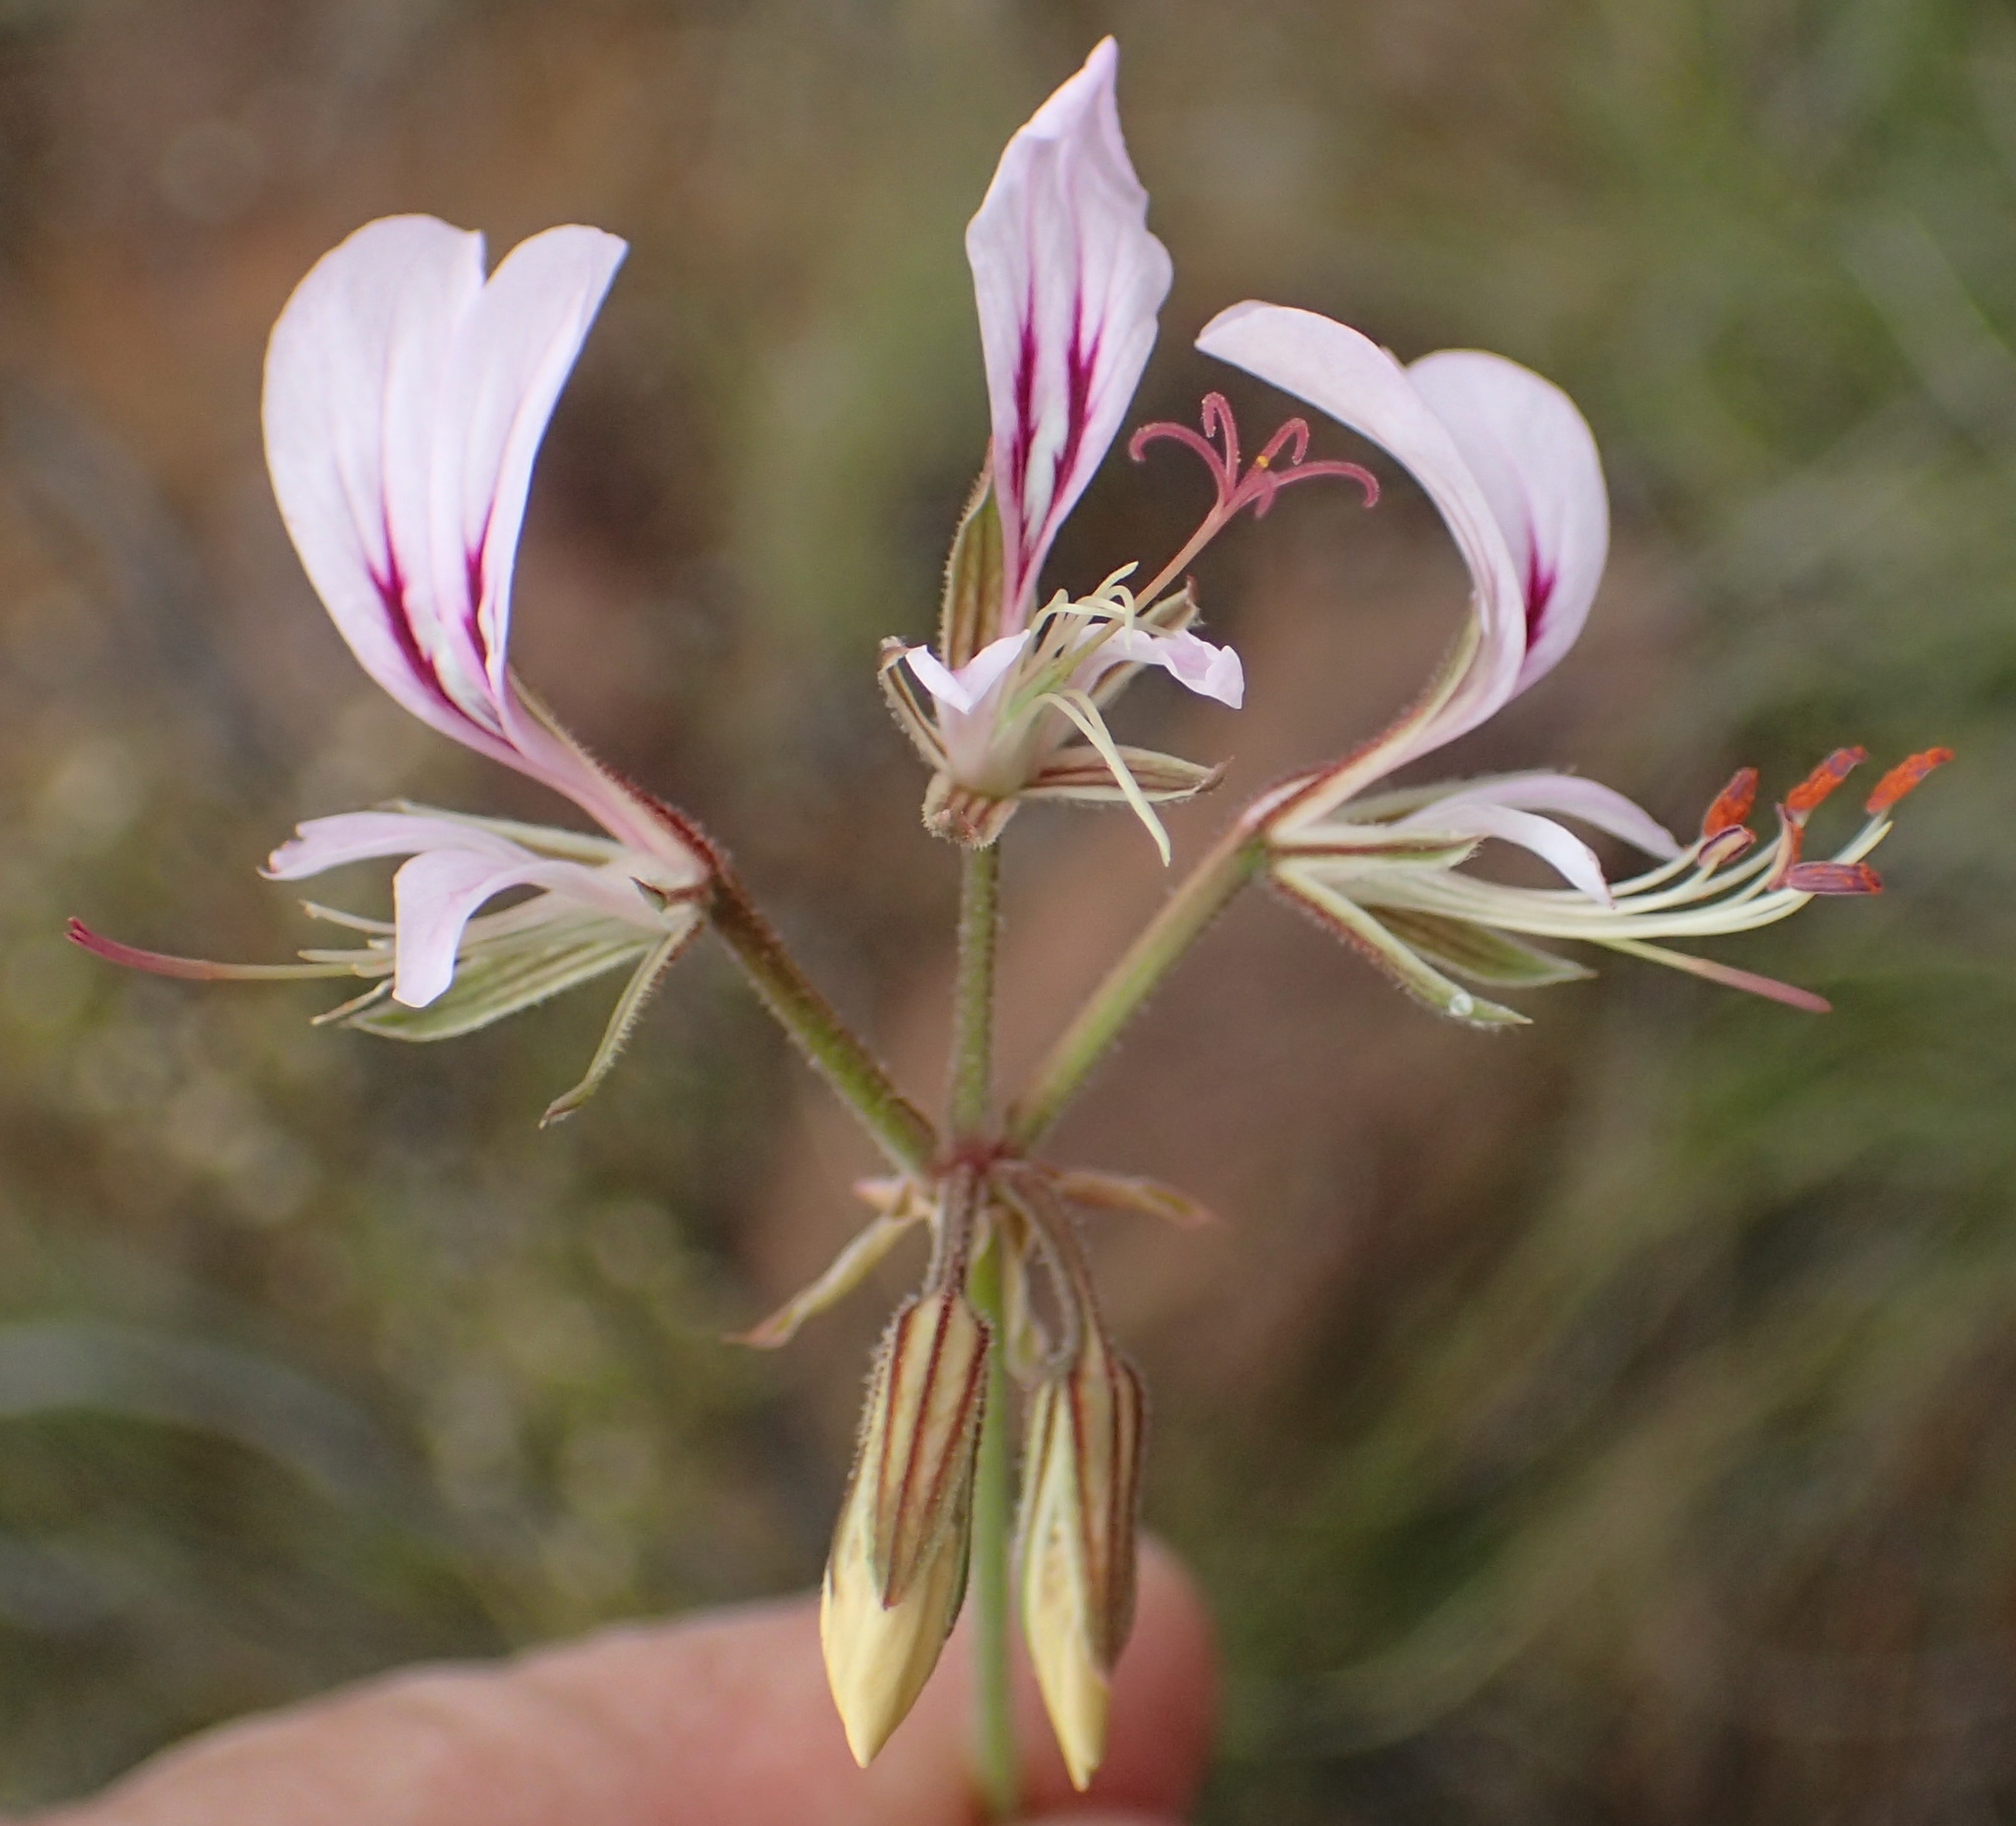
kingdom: Plantae
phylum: Tracheophyta
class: Magnoliopsida
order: Geraniales
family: Geraniaceae
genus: Pelargonium
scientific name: Pelargonium myrrhifolium
